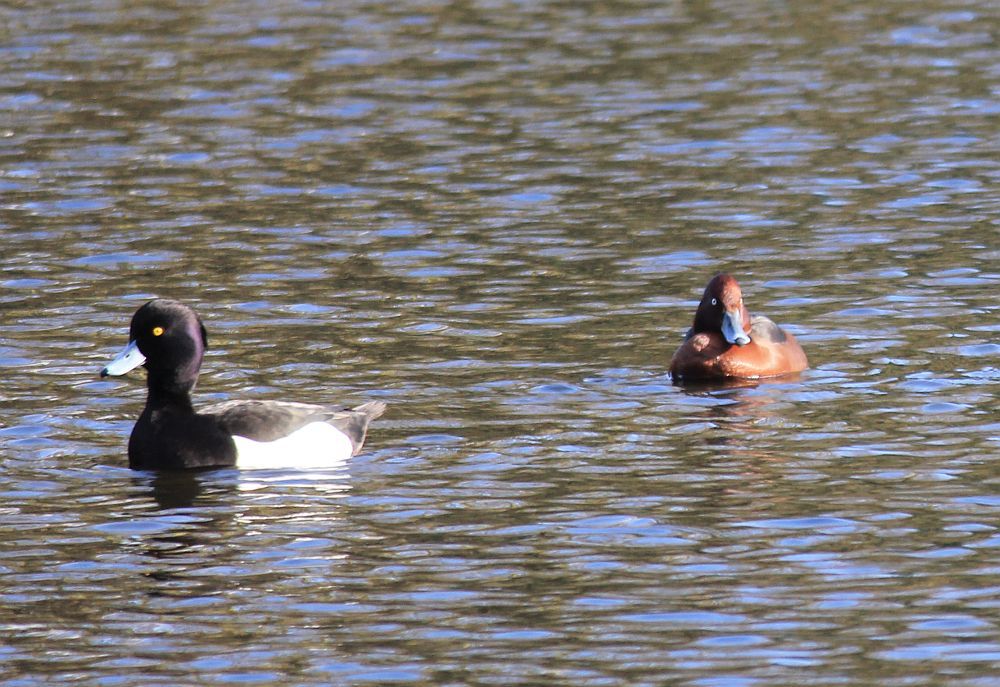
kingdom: Animalia
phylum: Chordata
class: Aves
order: Anseriformes
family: Anatidae
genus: Aythya
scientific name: Aythya nyroca
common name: Ferruginous duck
